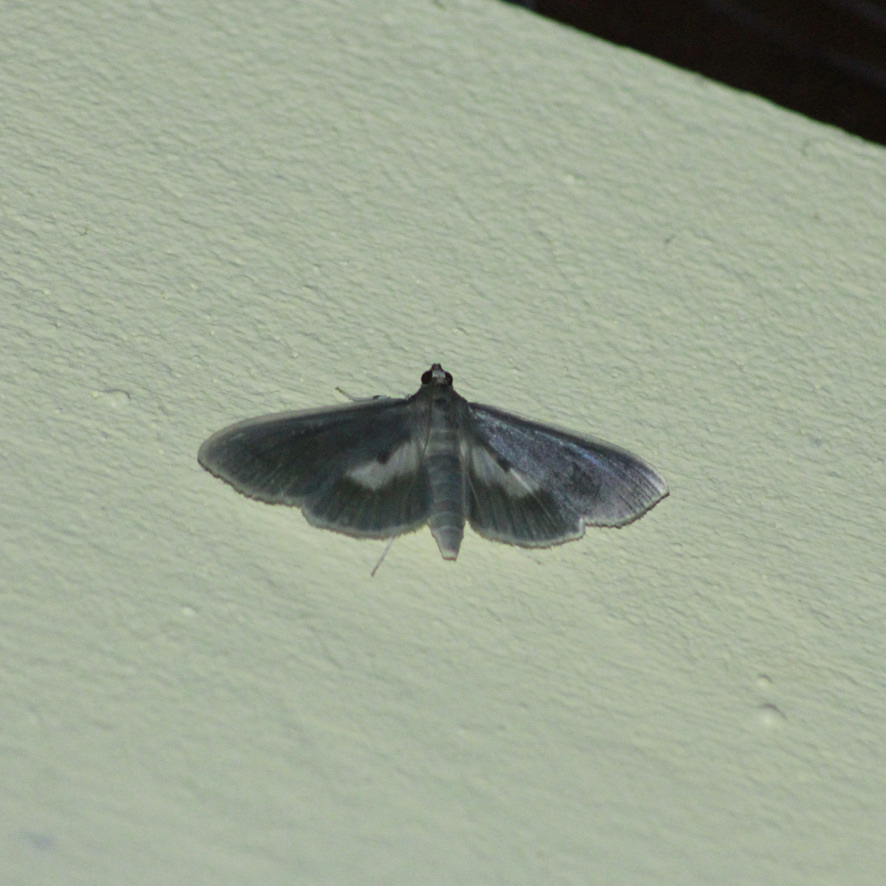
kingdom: Animalia
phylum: Arthropoda
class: Insecta
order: Lepidoptera
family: Crambidae
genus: Syllepte
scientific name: Syllepte laticalis
